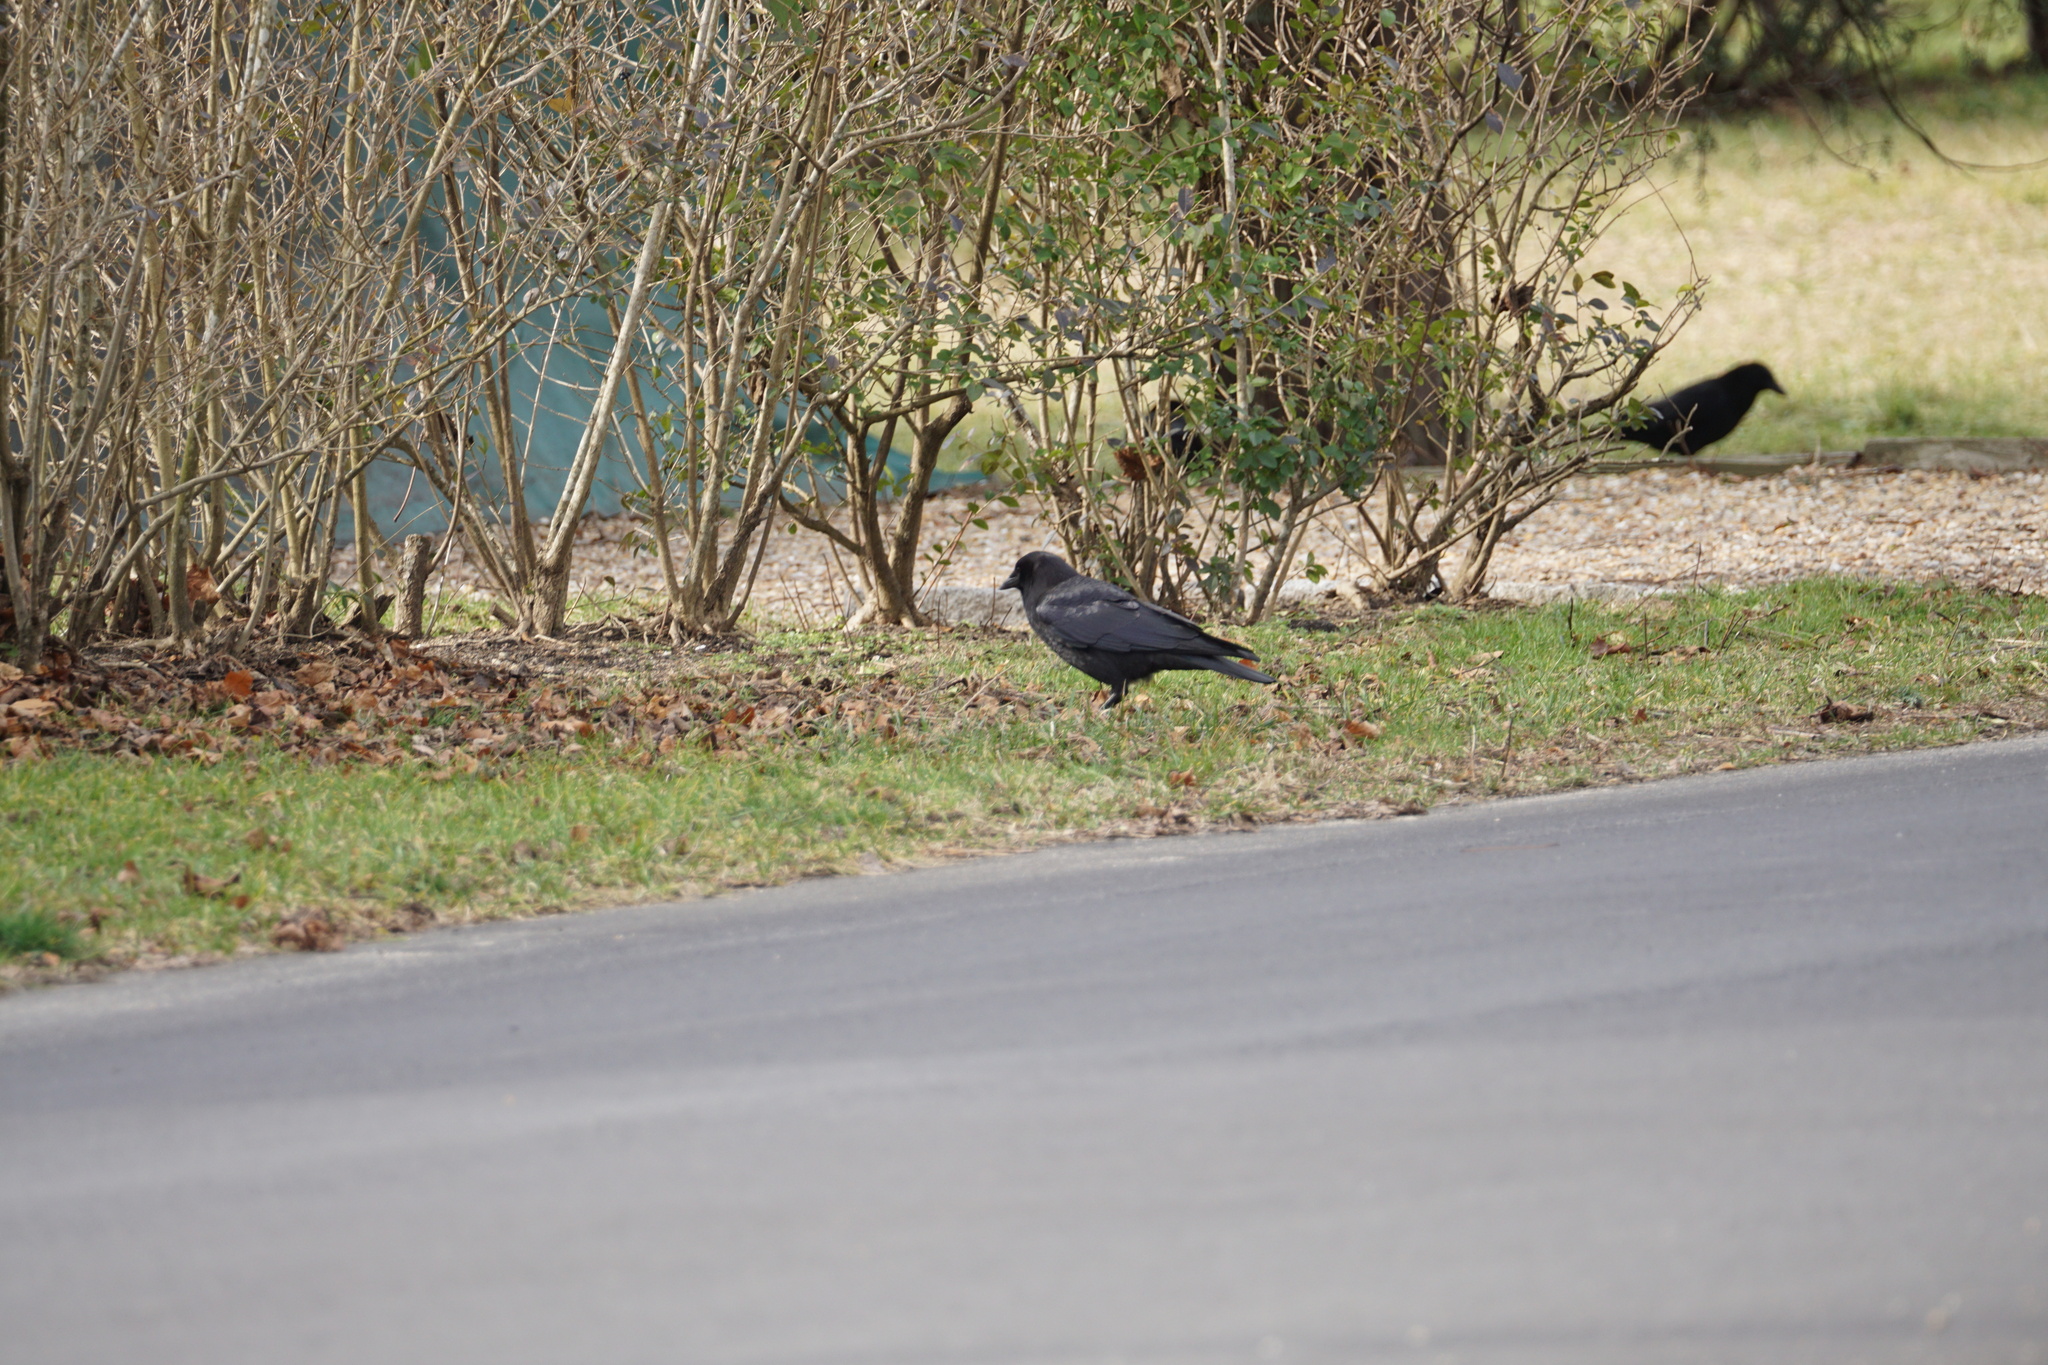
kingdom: Animalia
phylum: Chordata
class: Aves
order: Passeriformes
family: Corvidae
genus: Corvus
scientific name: Corvus brachyrhynchos
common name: American crow
